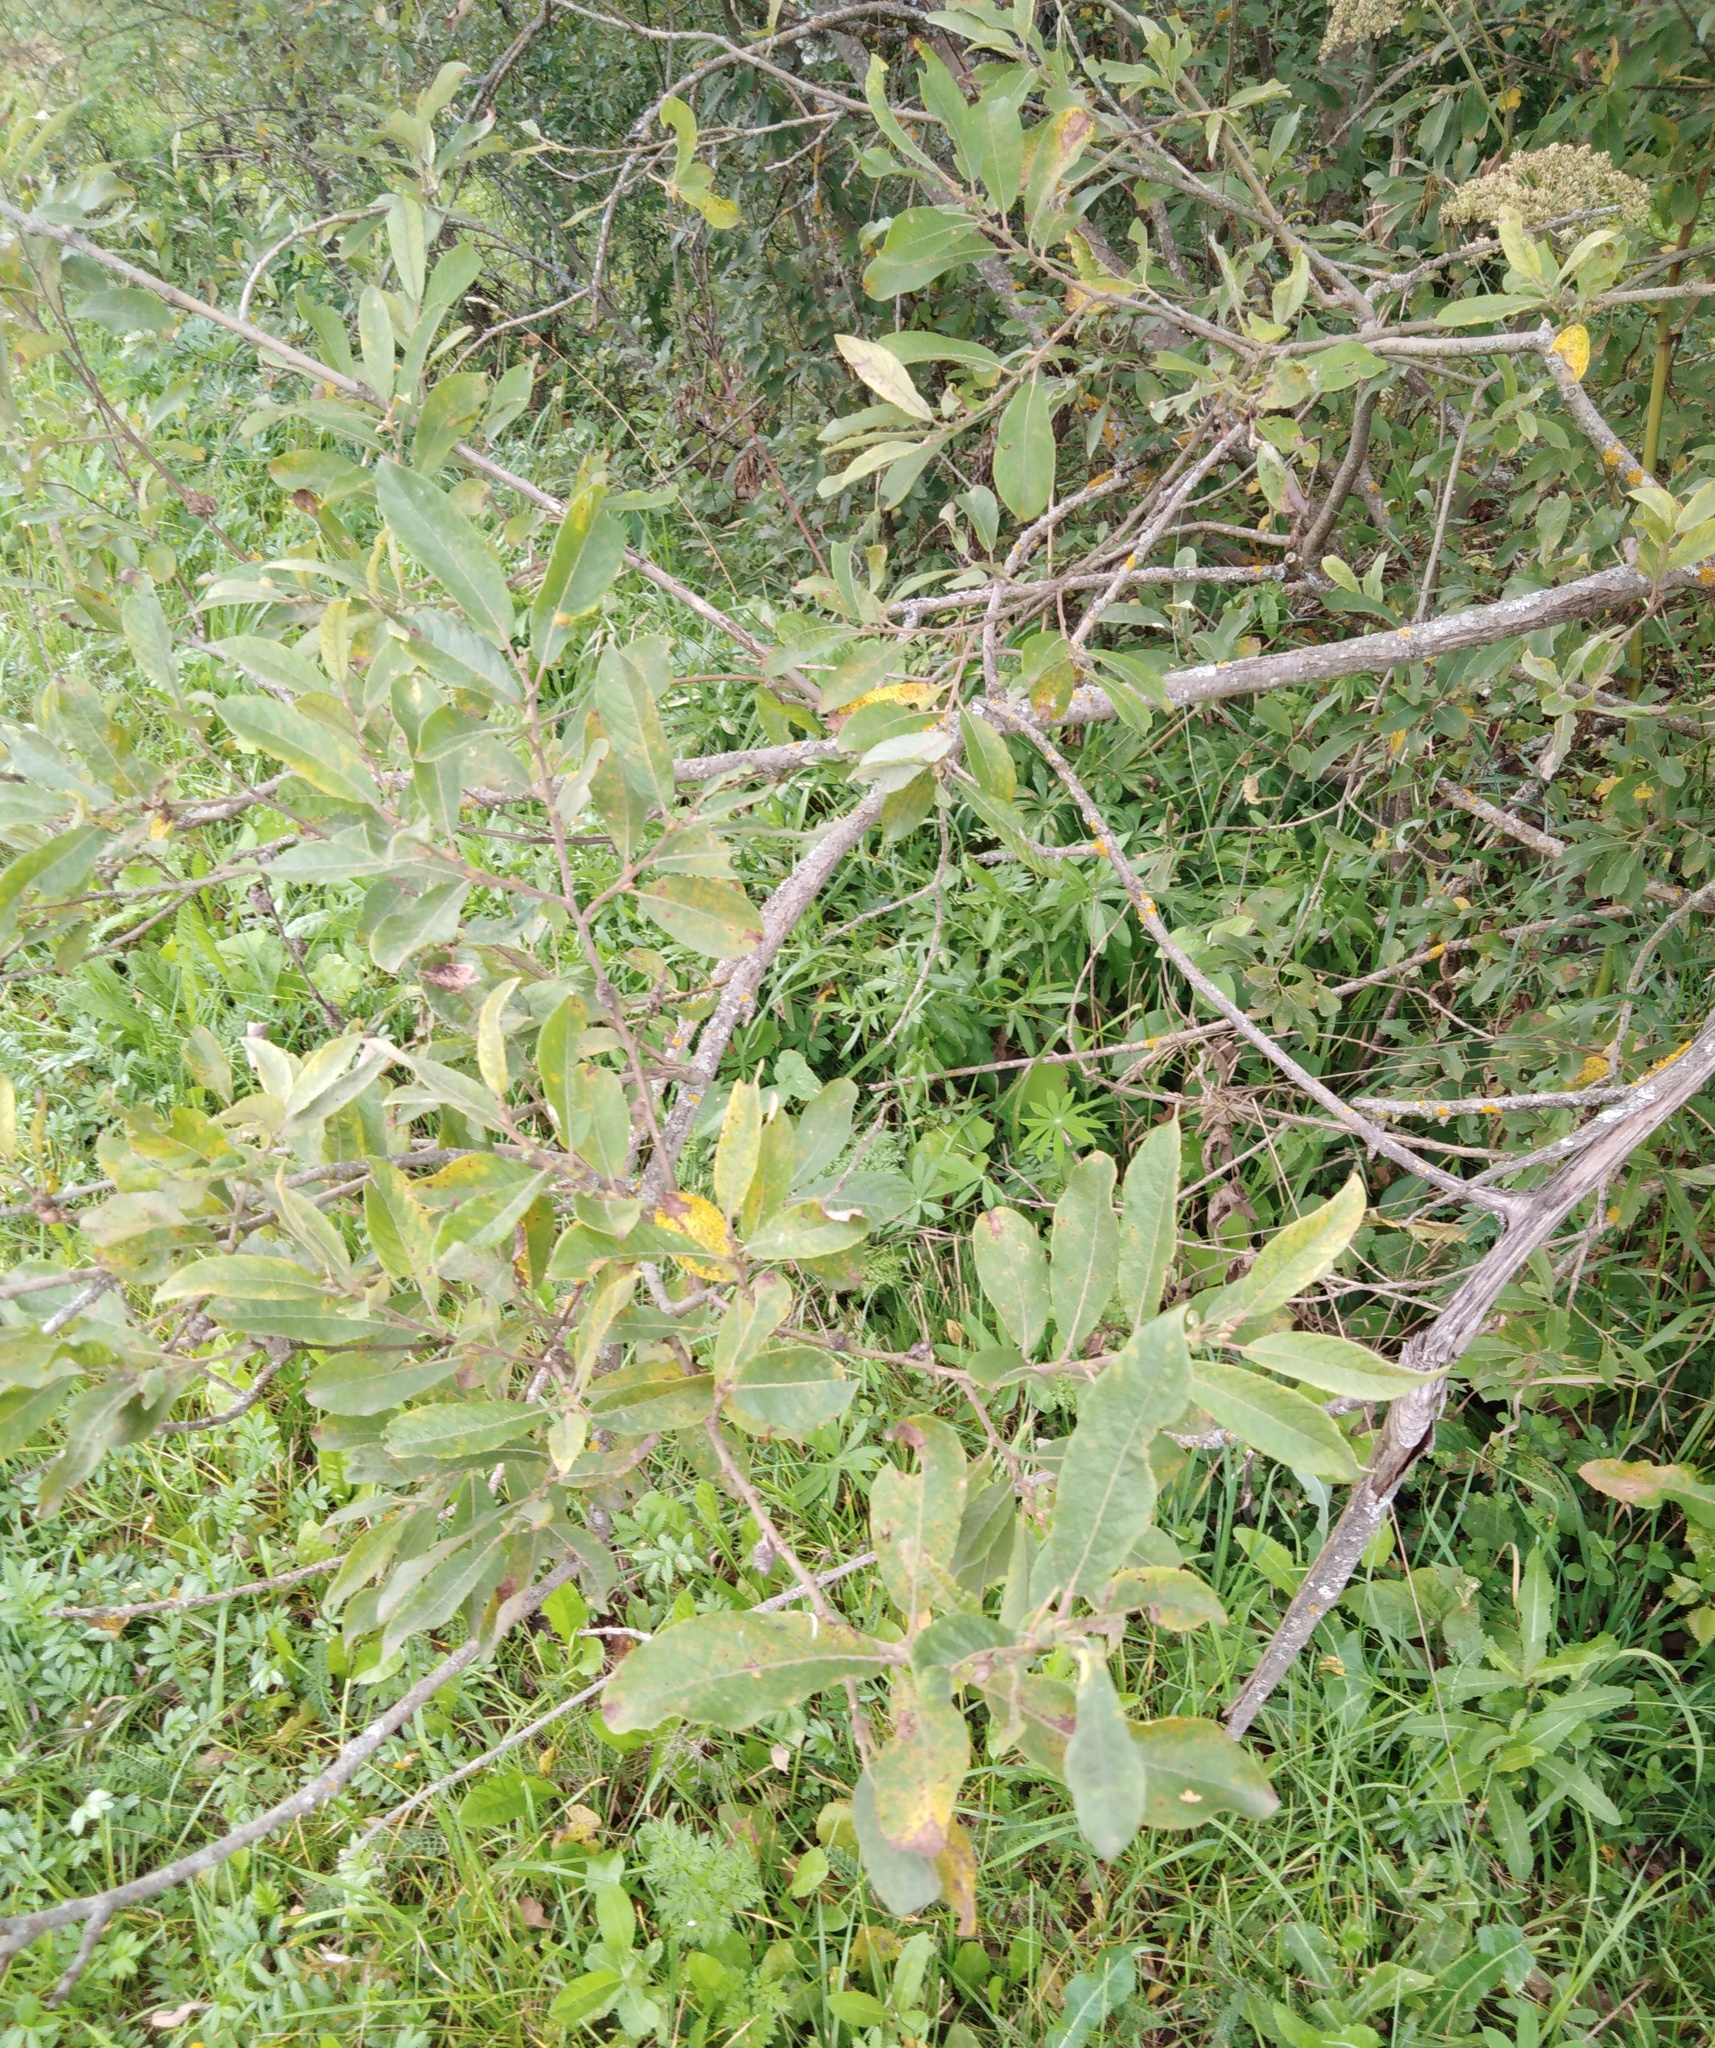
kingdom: Plantae
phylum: Tracheophyta
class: Magnoliopsida
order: Malpighiales
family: Salicaceae
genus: Salix
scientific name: Salix cinerea
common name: Common sallow
